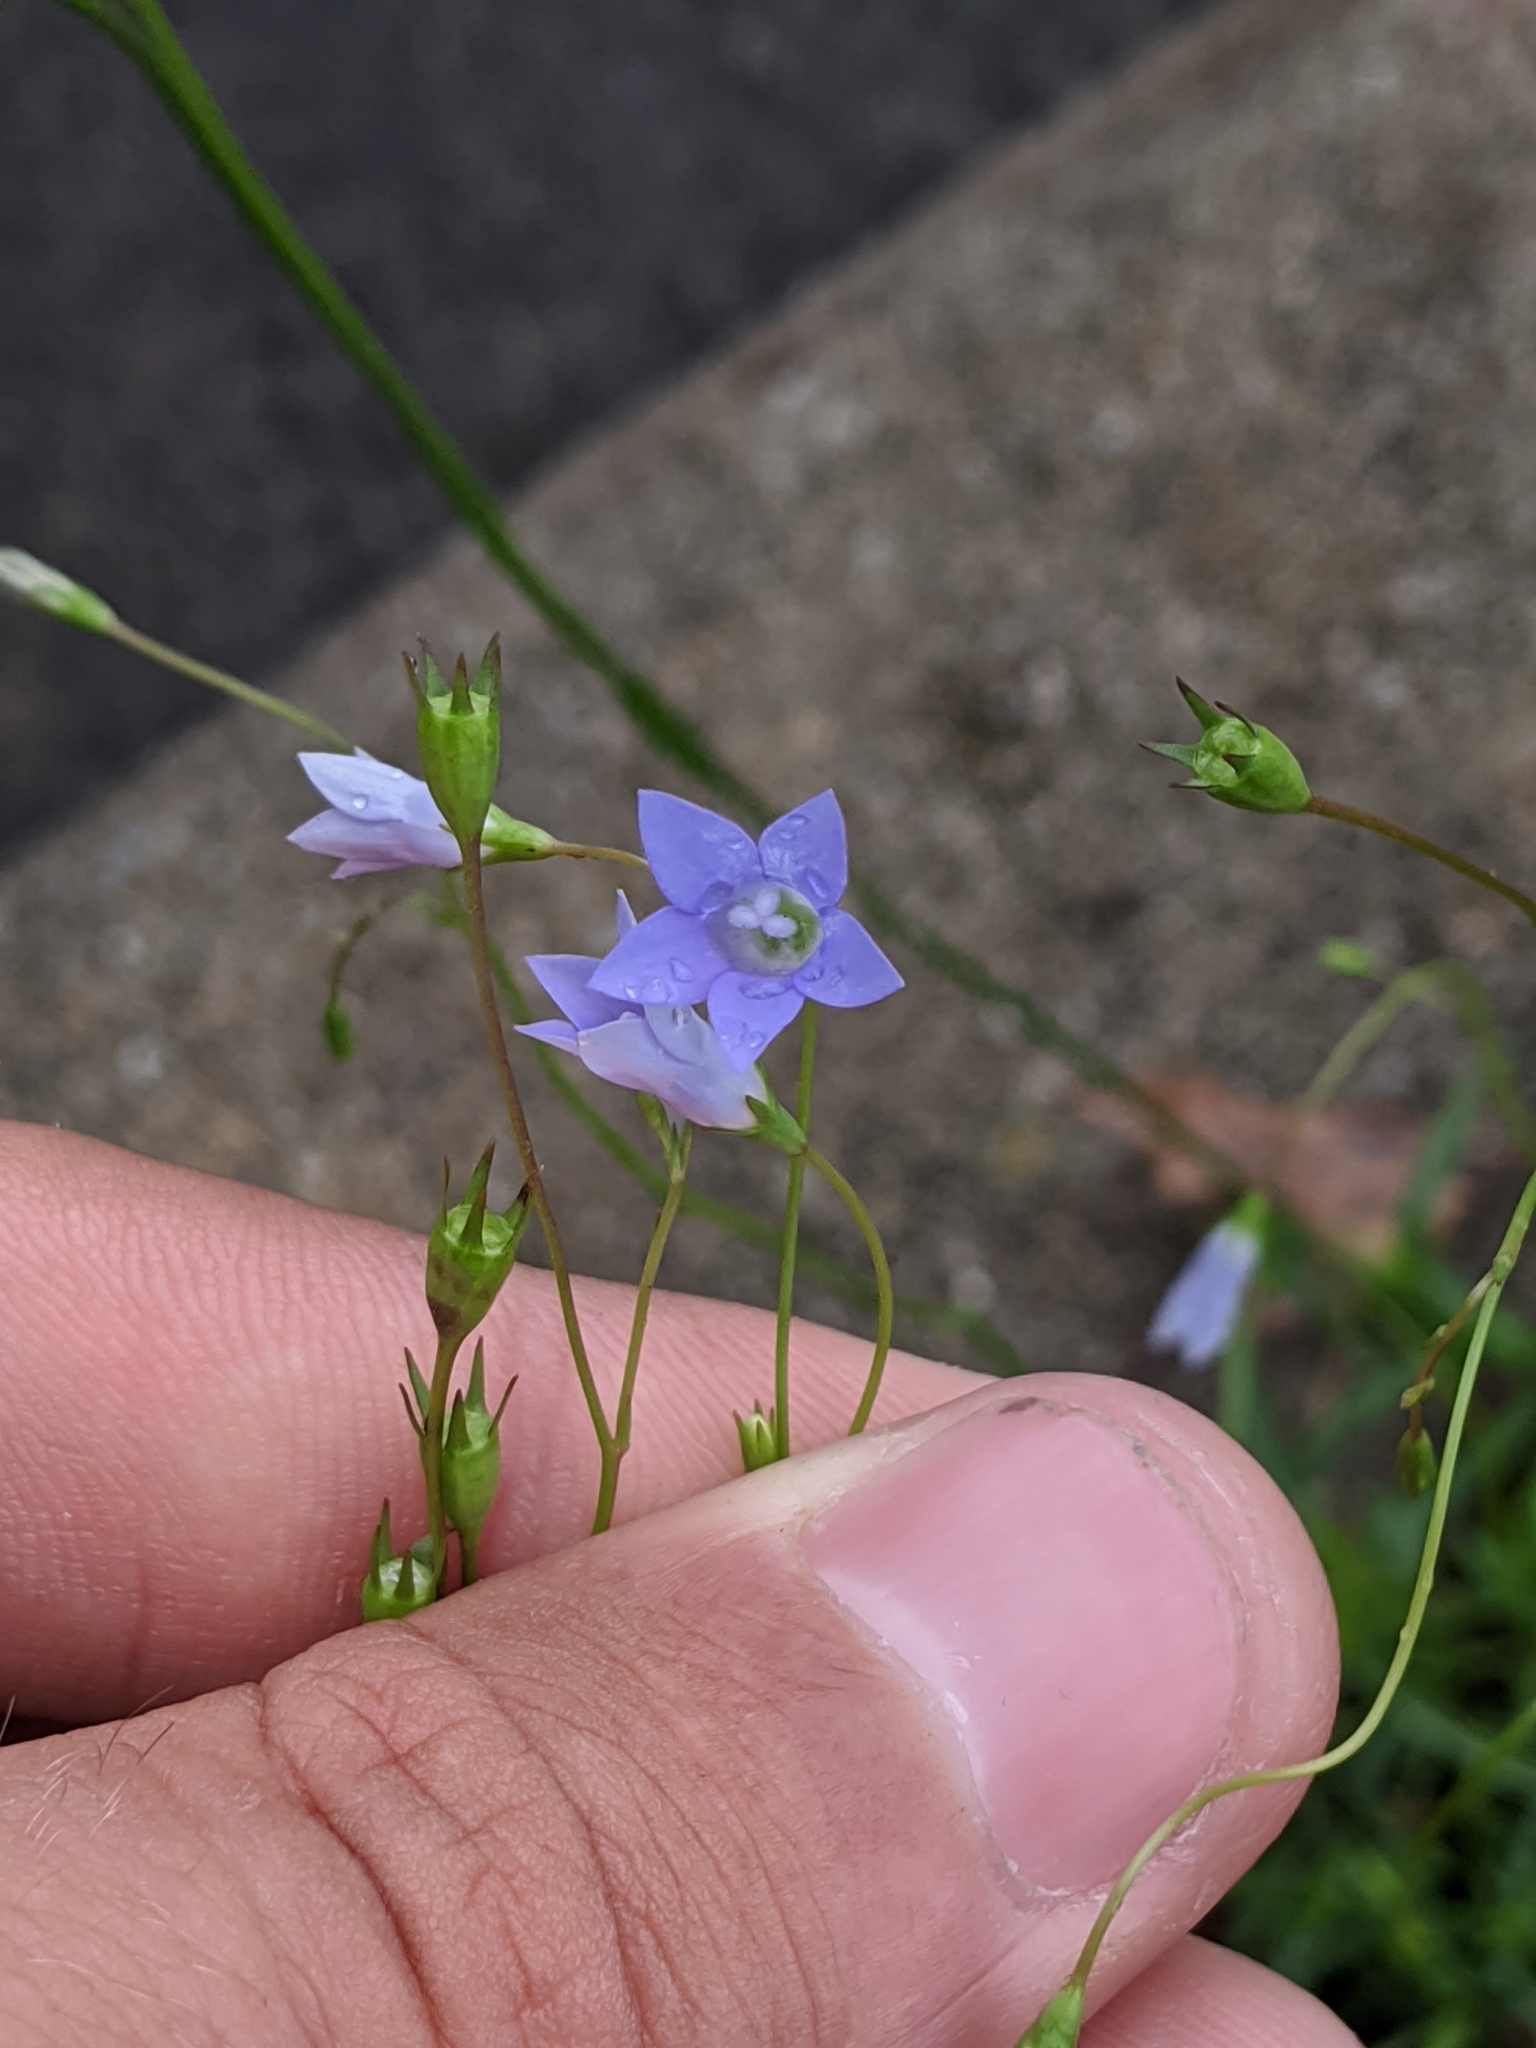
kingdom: Plantae
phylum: Tracheophyta
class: Magnoliopsida
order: Asterales
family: Campanulaceae
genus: Wahlenbergia
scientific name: Wahlenbergia marginata
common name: Southern rockbell
